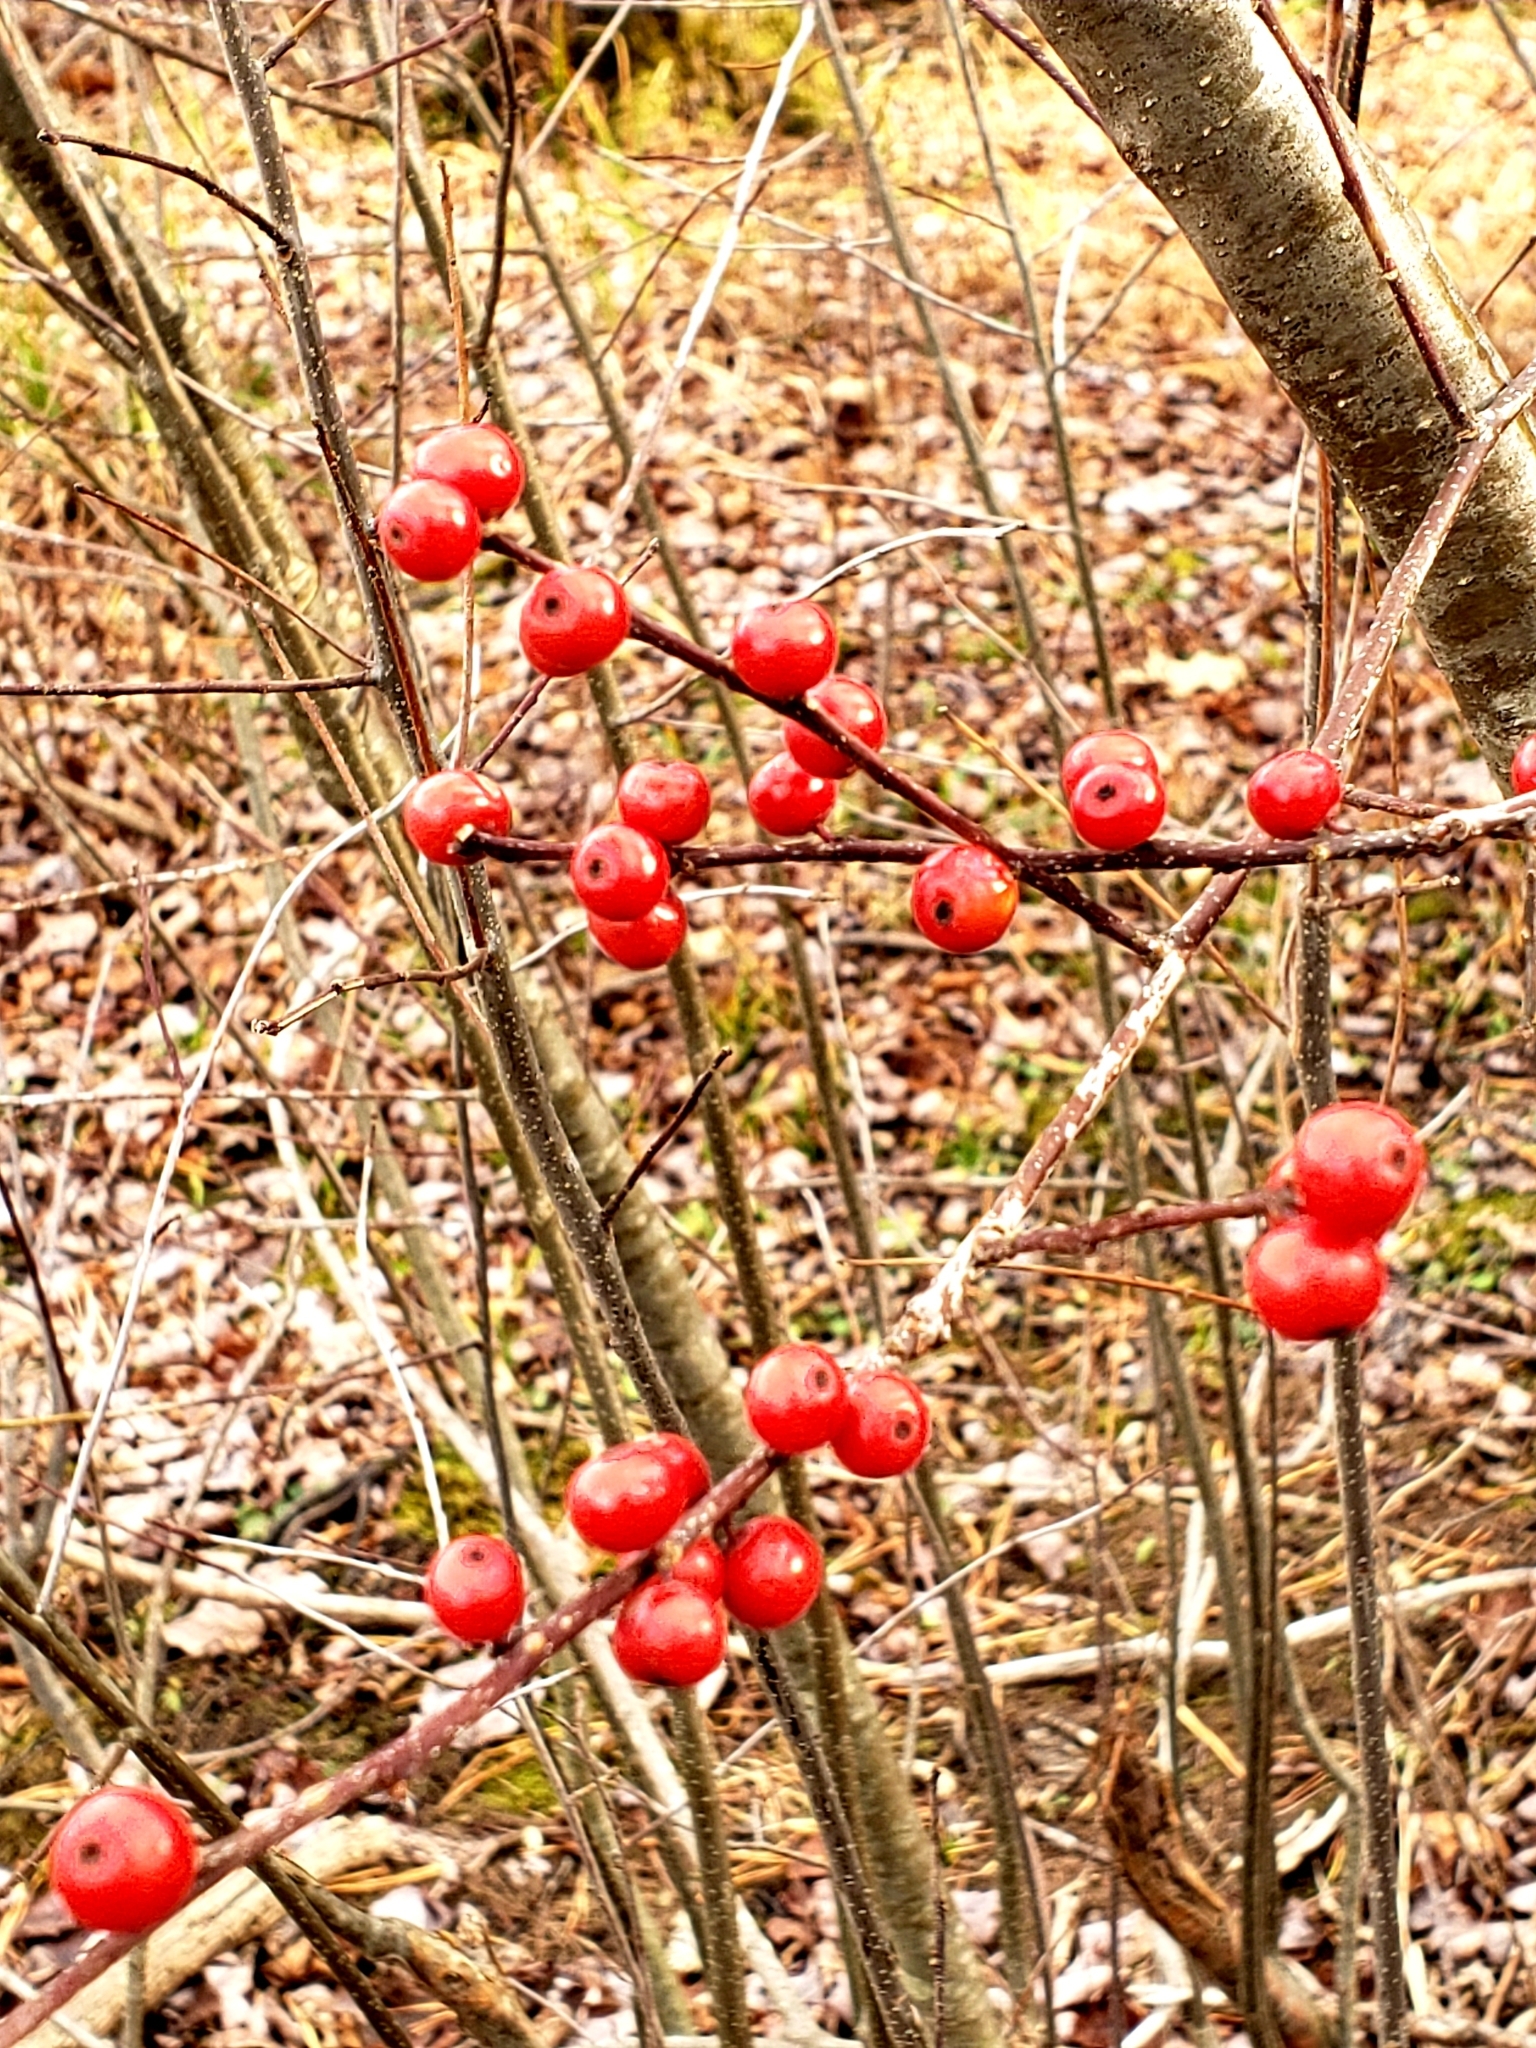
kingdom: Plantae
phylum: Tracheophyta
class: Magnoliopsida
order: Aquifoliales
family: Aquifoliaceae
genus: Ilex
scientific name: Ilex verticillata
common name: Virginia winterberry
